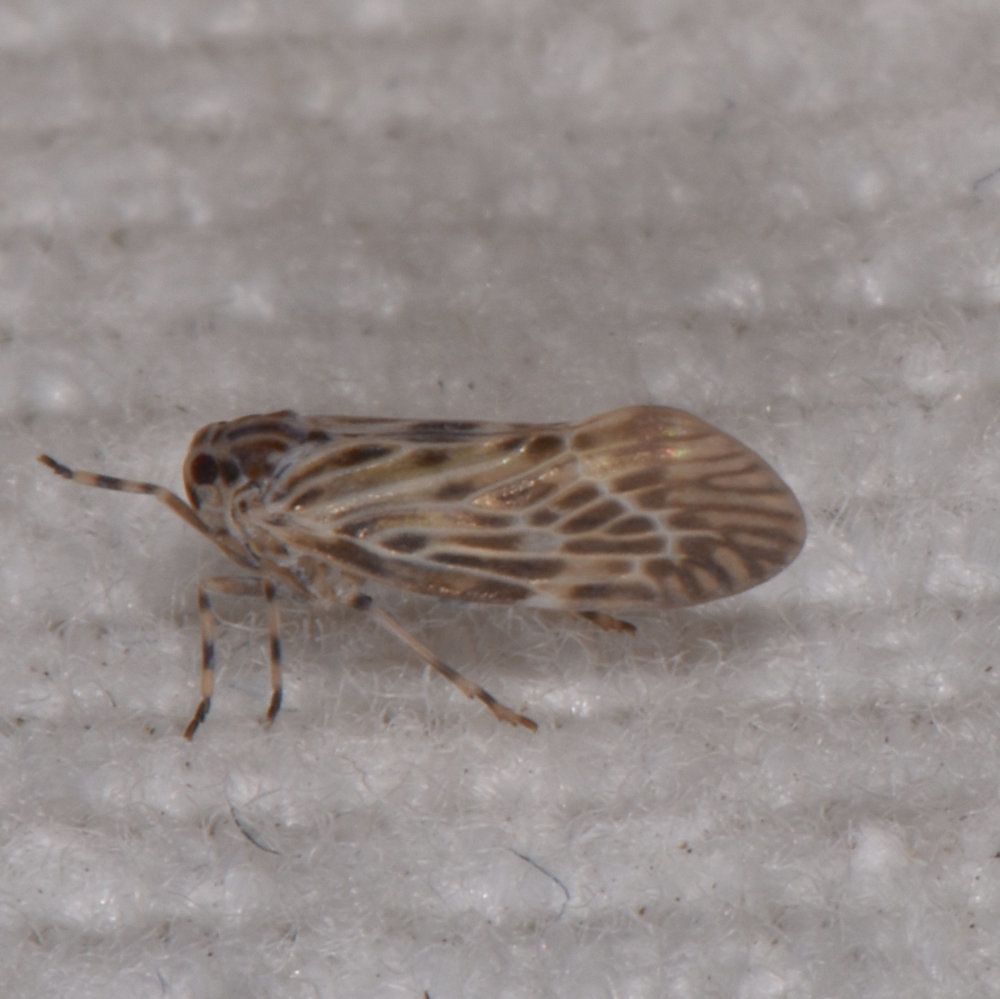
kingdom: Animalia
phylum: Arthropoda
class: Insecta
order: Hemiptera
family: Derbidae
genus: Cedusa
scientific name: Cedusa maculata
